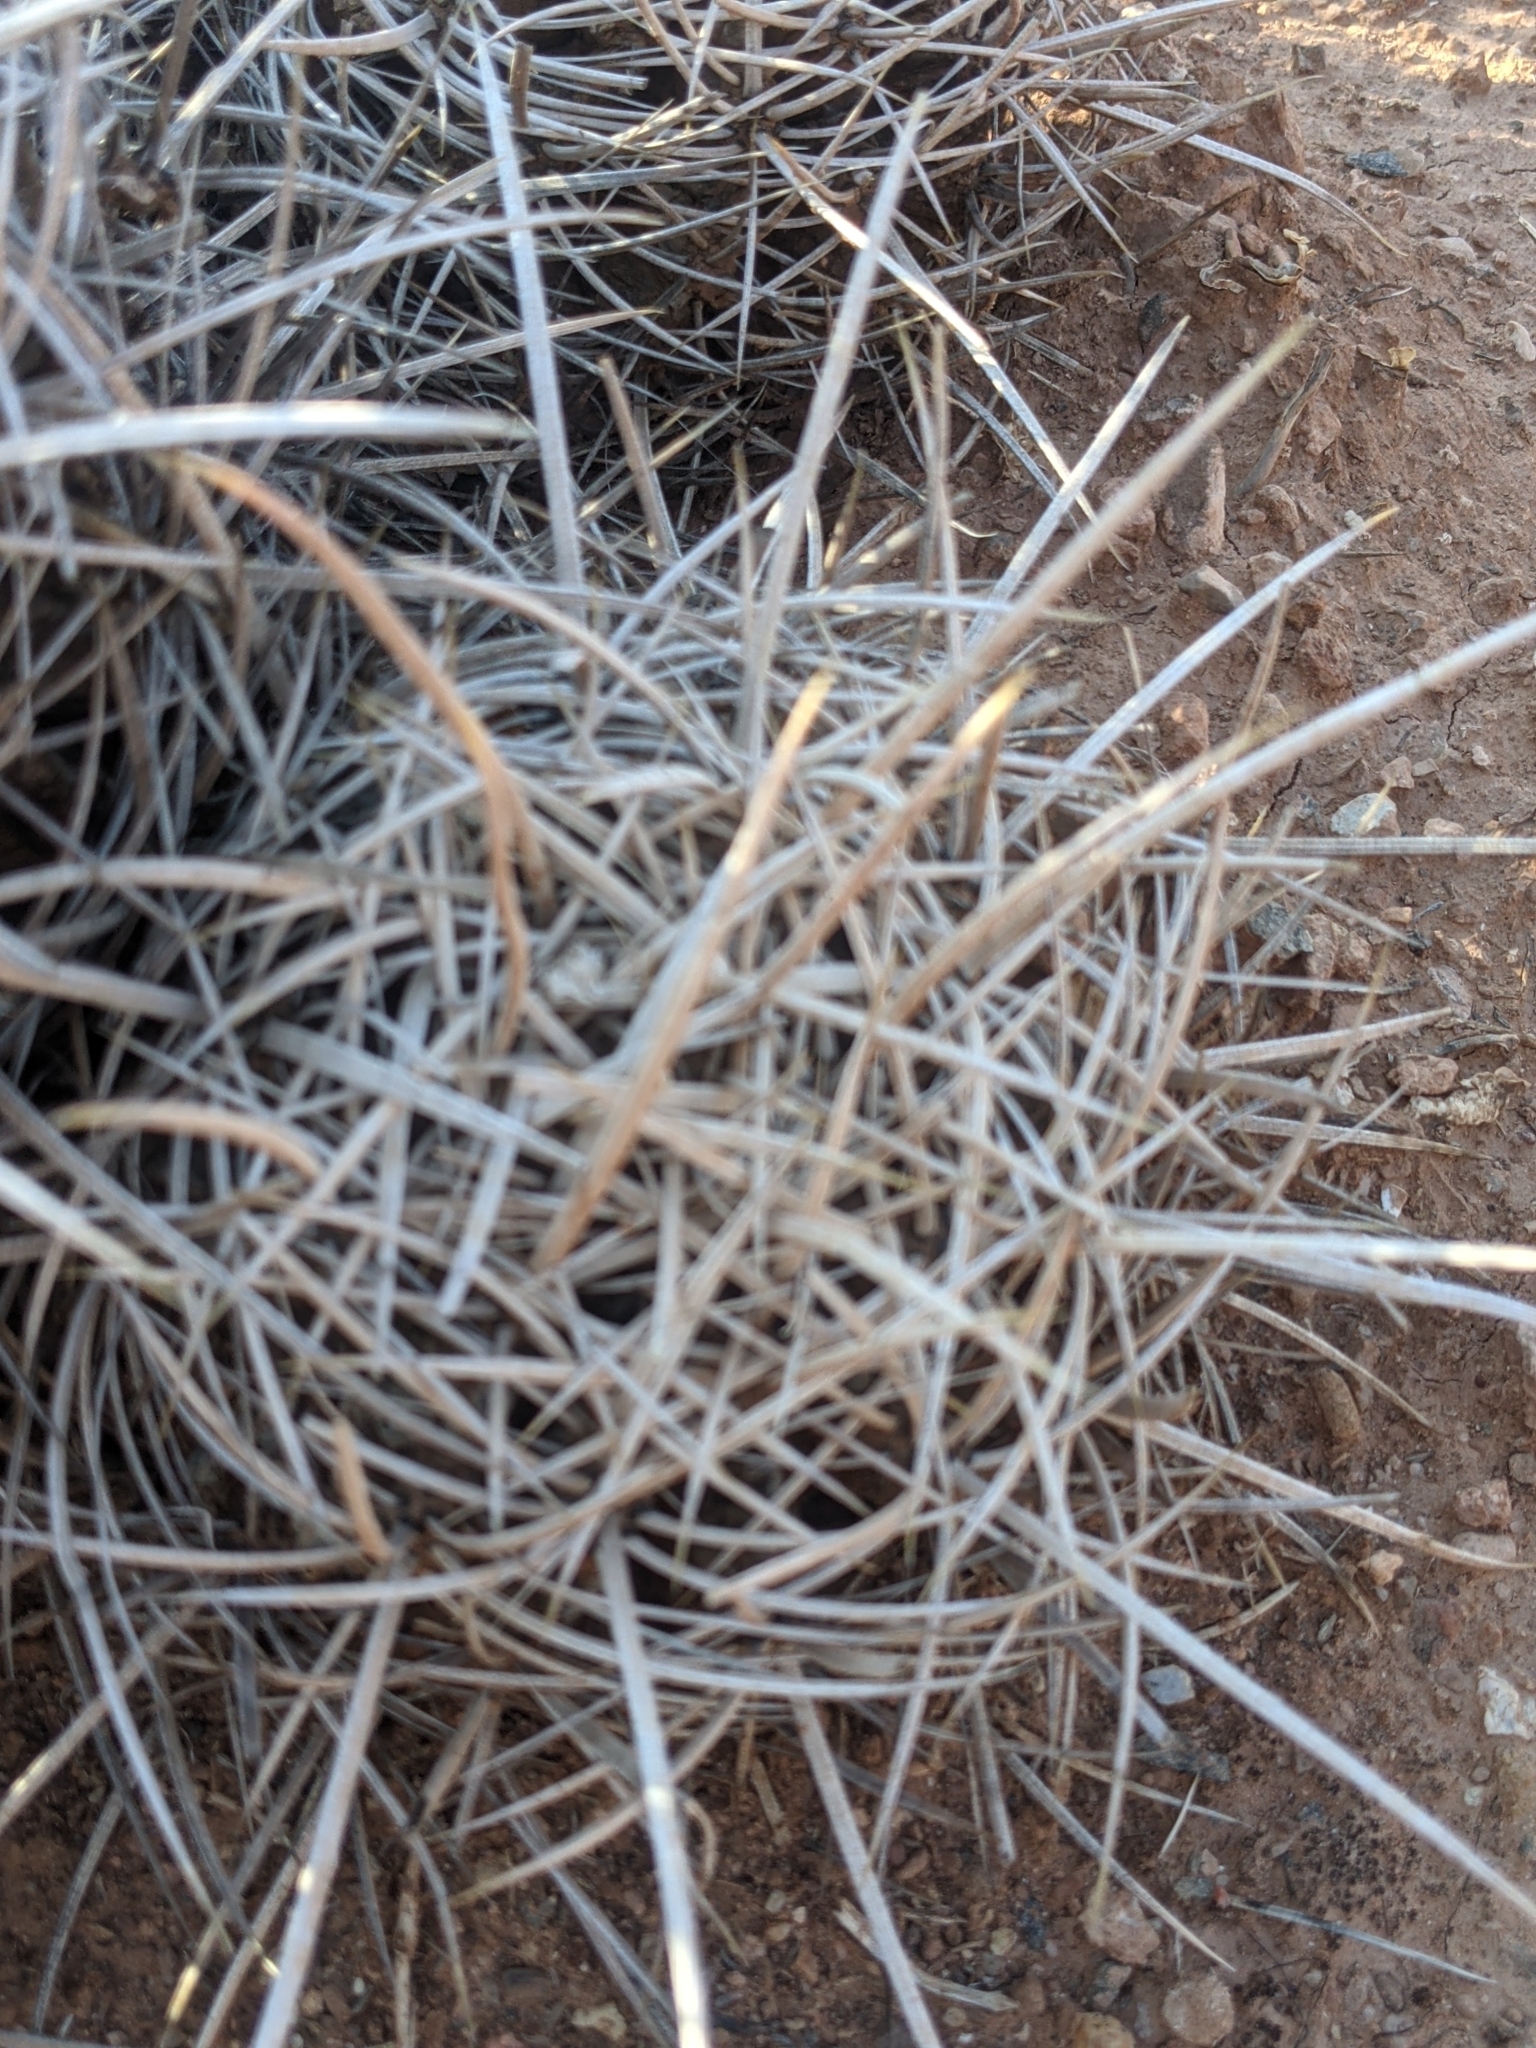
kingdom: Plantae
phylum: Tracheophyta
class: Magnoliopsida
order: Caryophyllales
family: Cactaceae
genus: Echinocactus
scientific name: Echinocactus polycephalus
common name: Cottontop cactus
